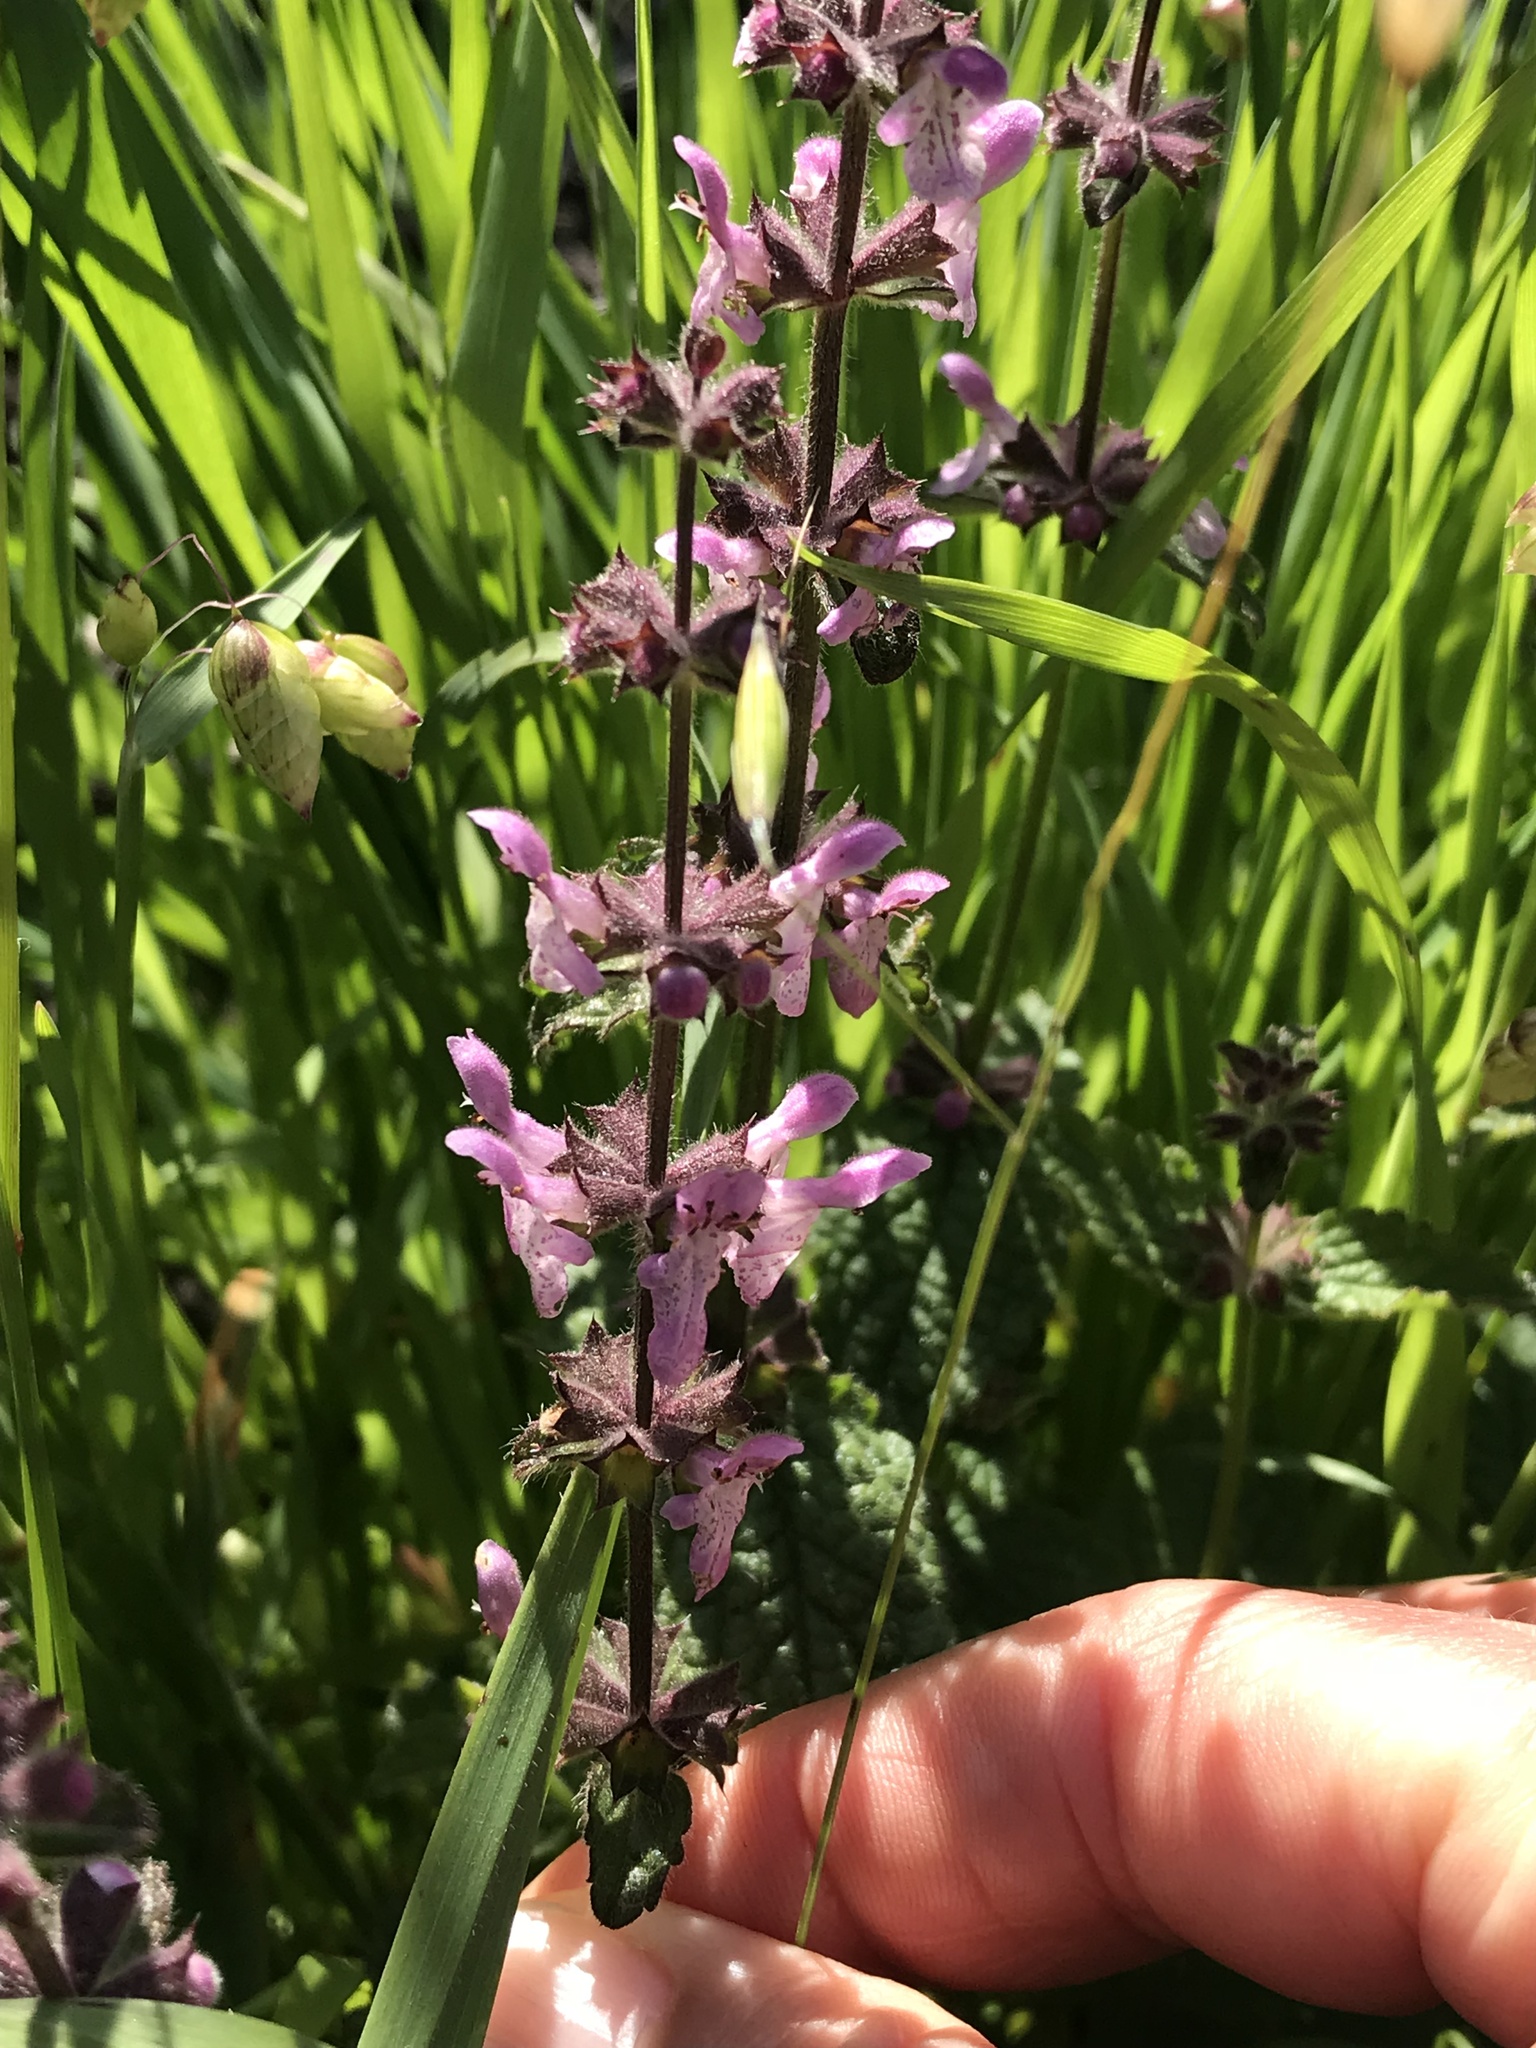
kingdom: Plantae
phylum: Tracheophyta
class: Magnoliopsida
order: Lamiales
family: Lamiaceae
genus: Stachys
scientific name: Stachys bullata
